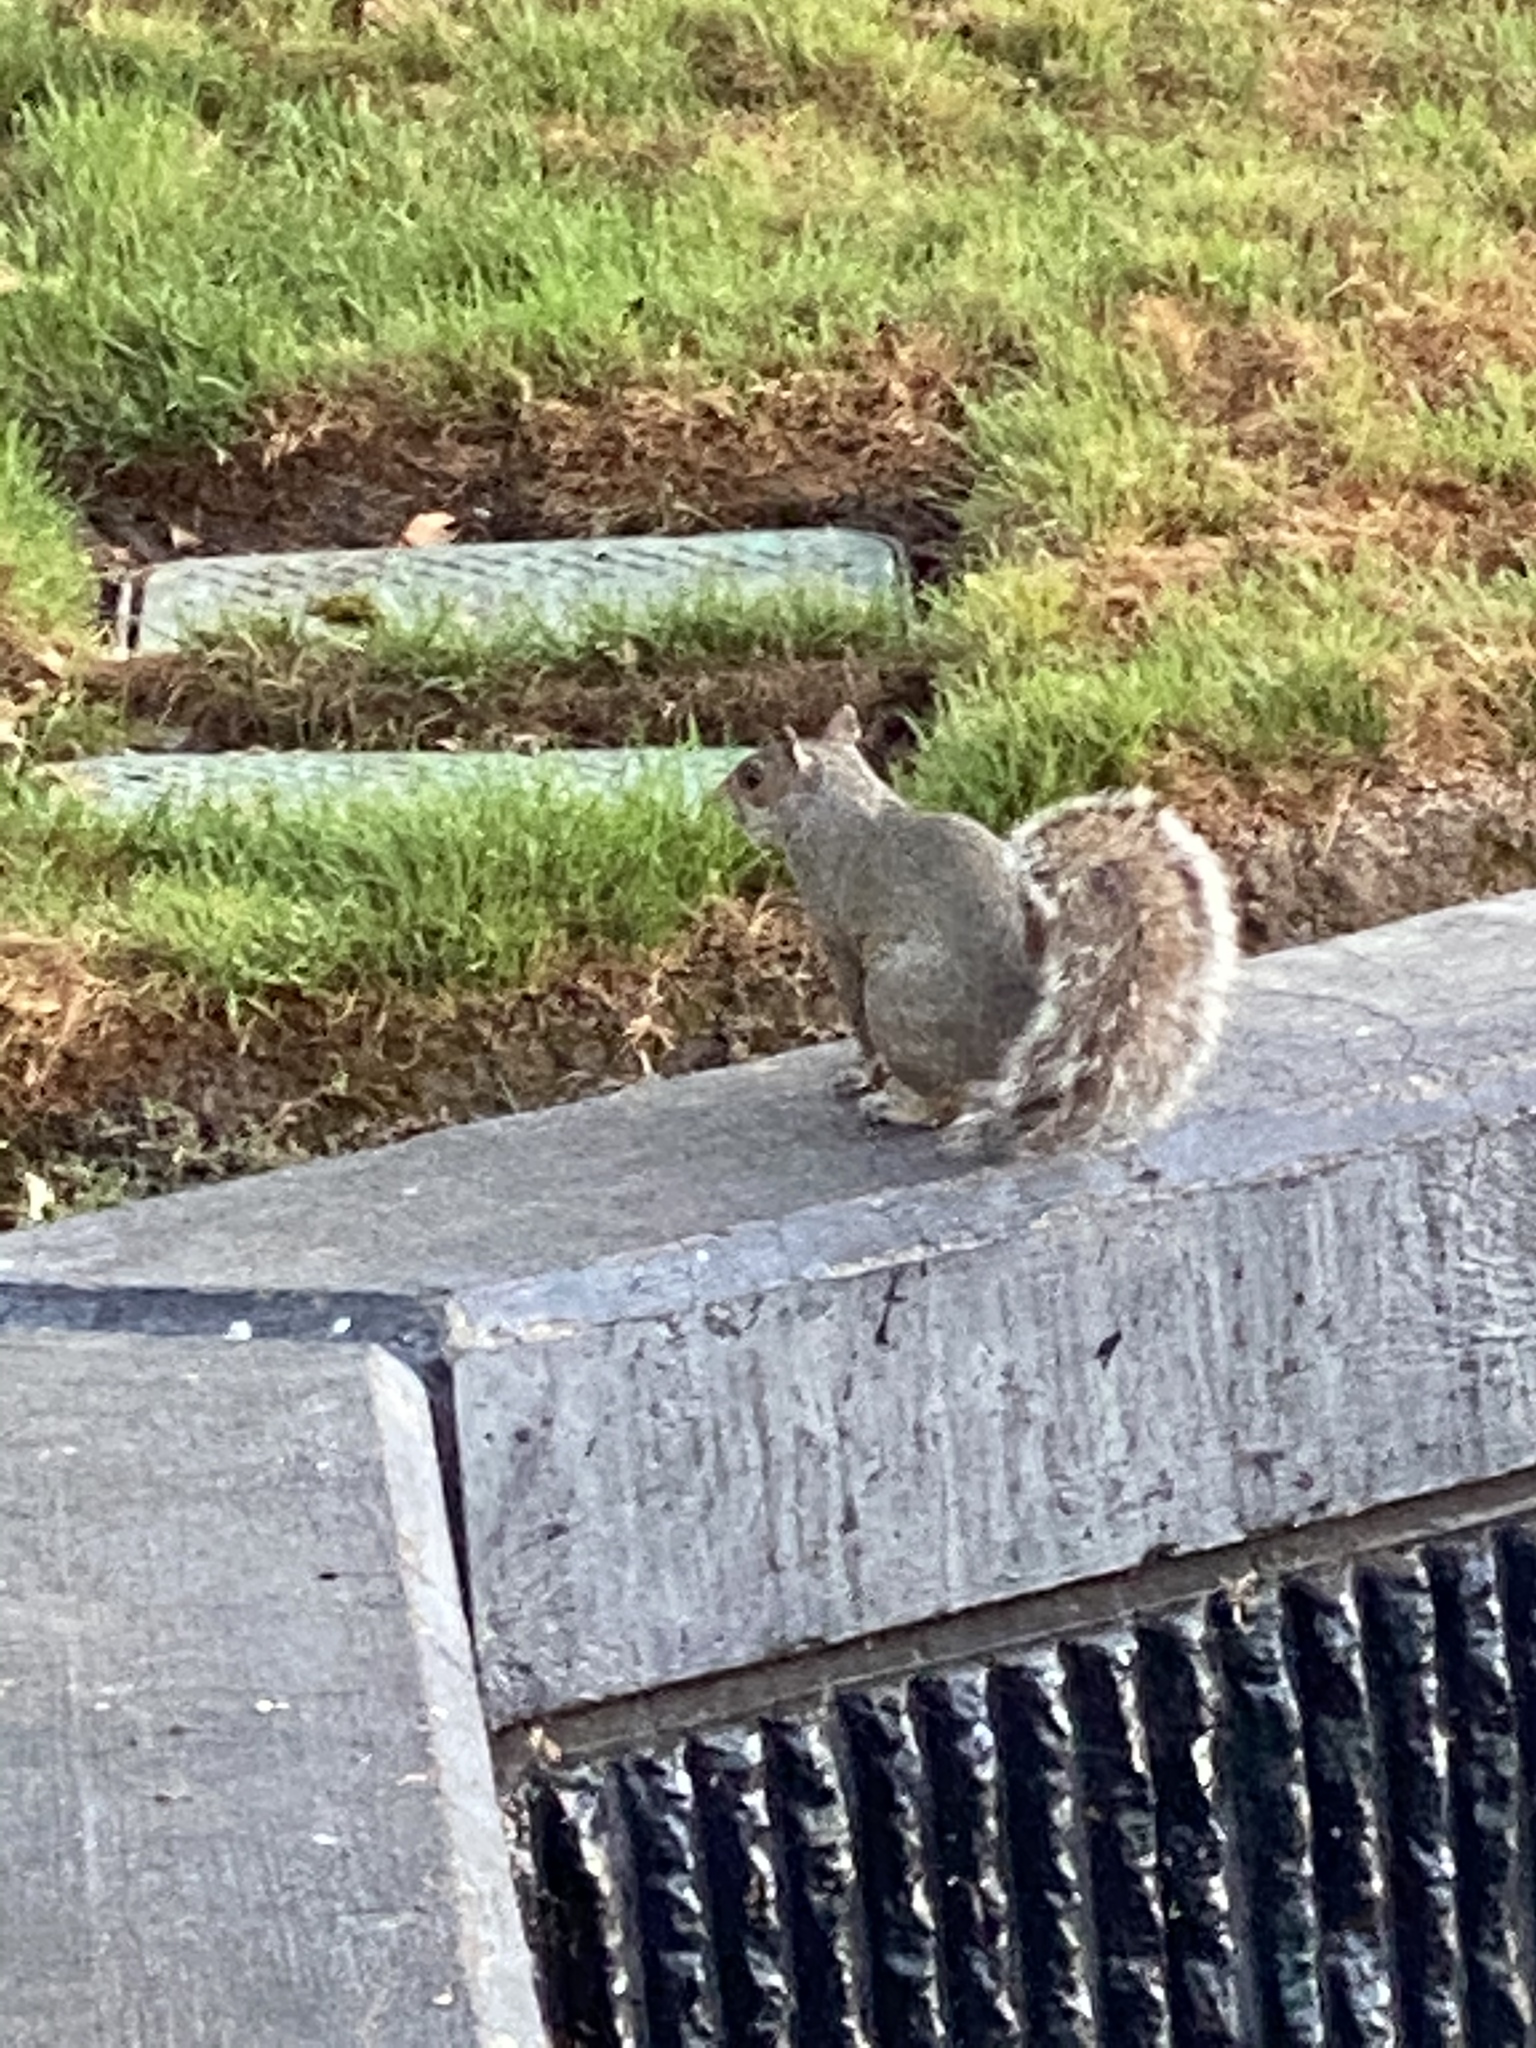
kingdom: Animalia
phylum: Chordata
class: Mammalia
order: Rodentia
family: Sciuridae
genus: Sciurus
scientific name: Sciurus carolinensis
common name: Eastern gray squirrel
